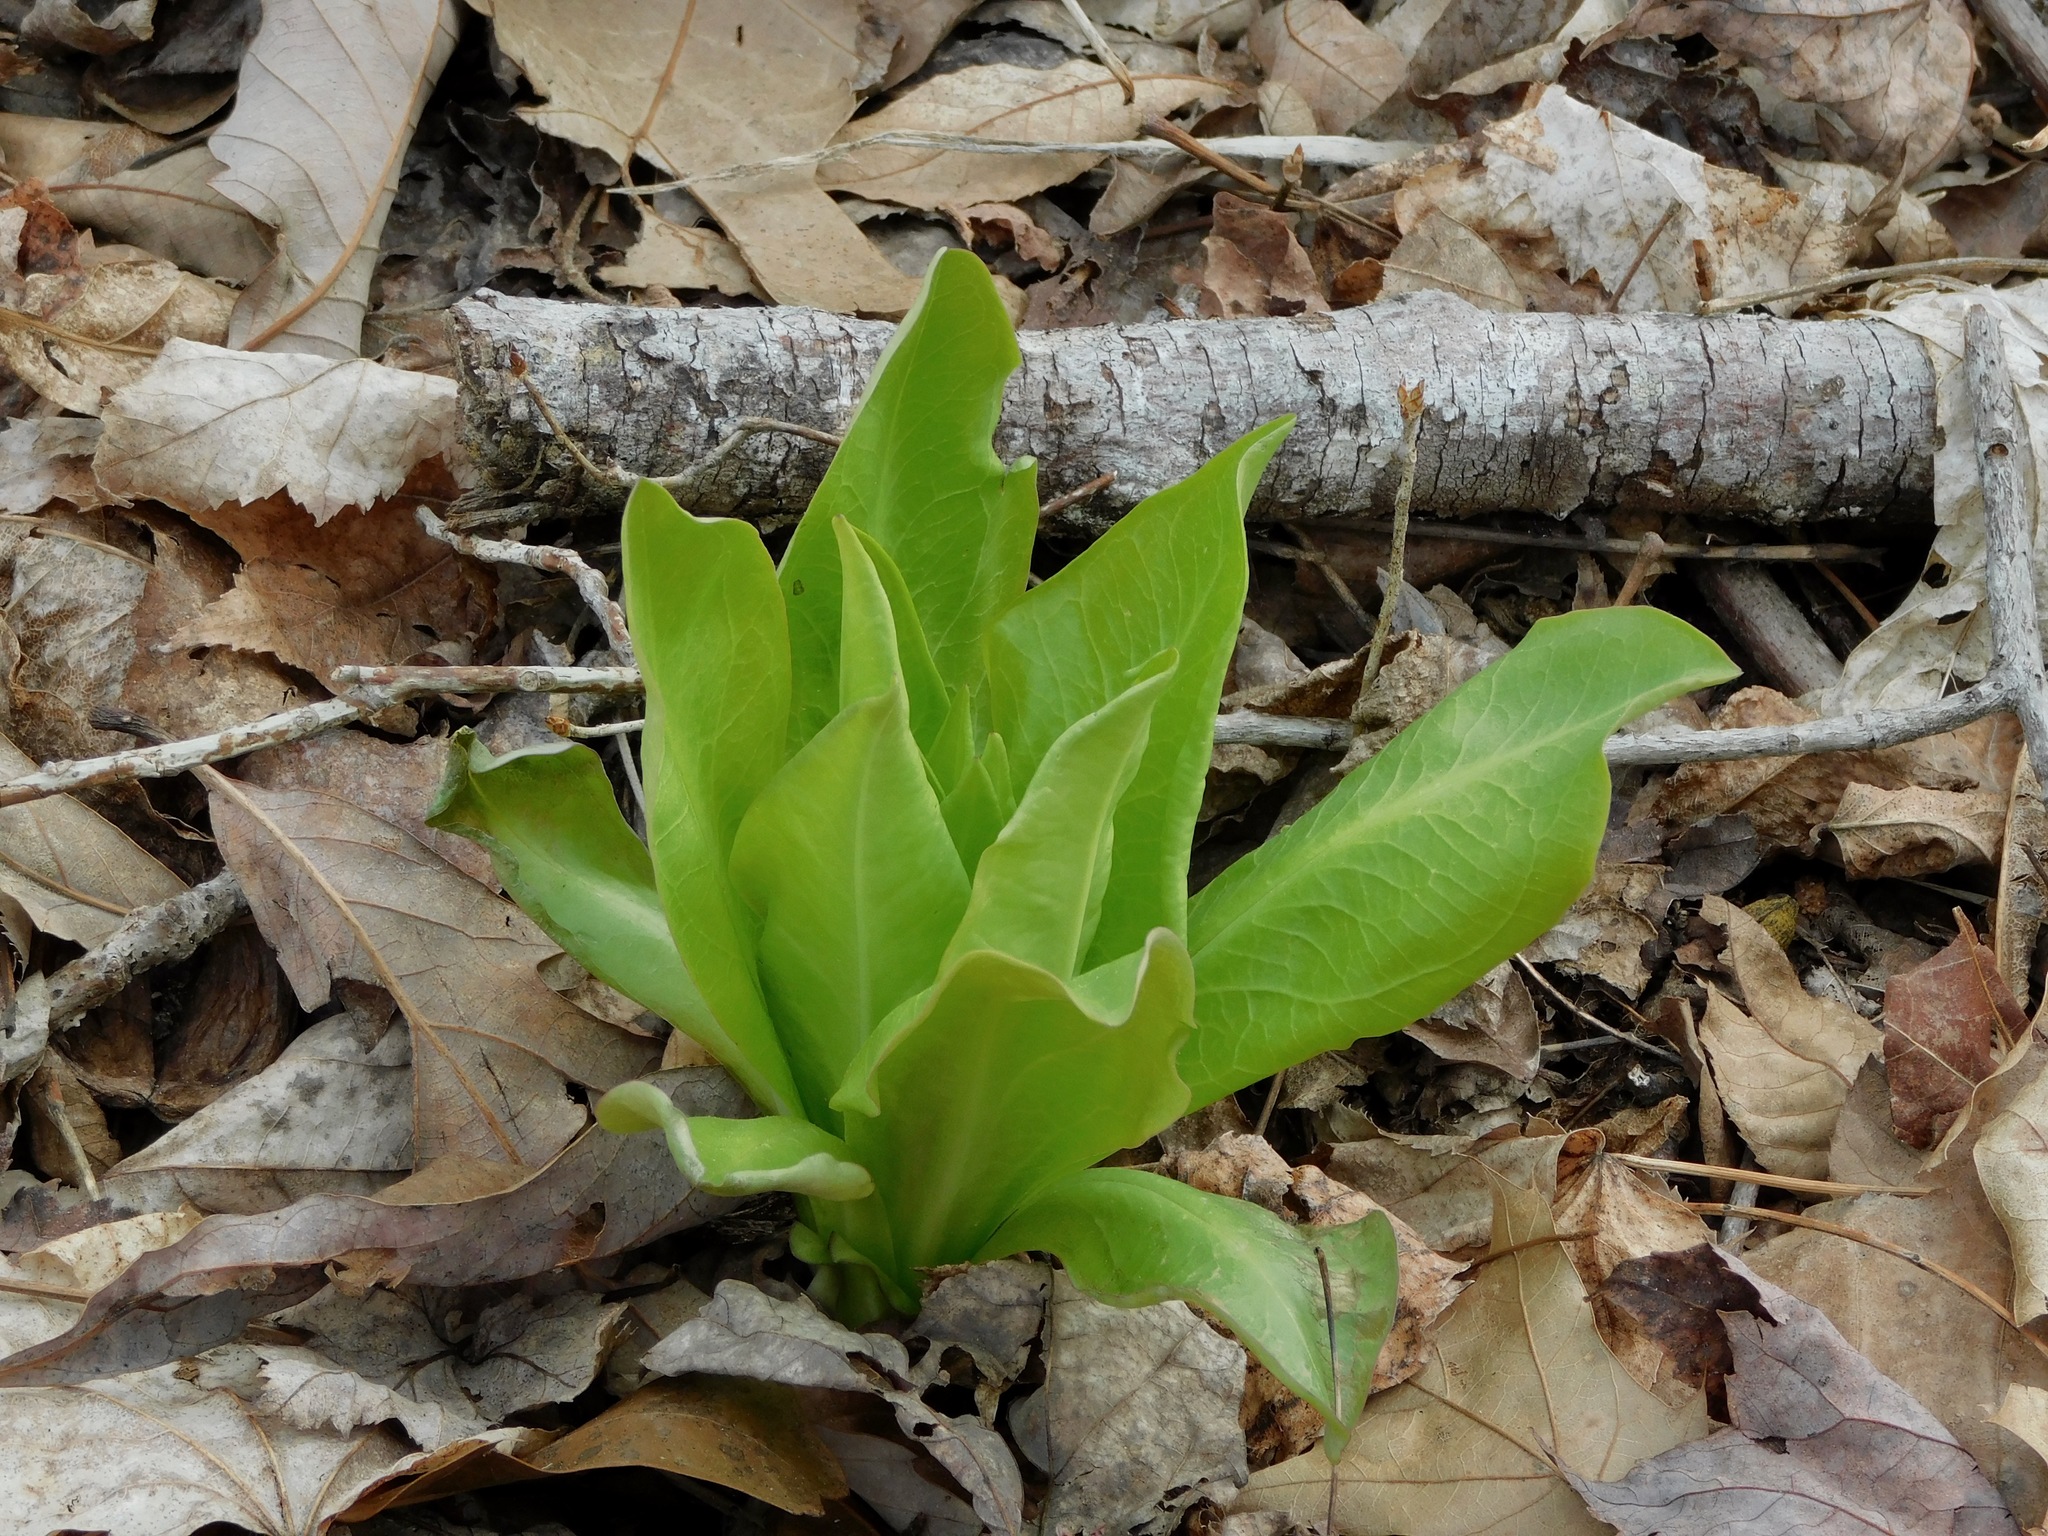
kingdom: Plantae
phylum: Tracheophyta
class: Magnoliopsida
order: Gentianales
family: Gentianaceae
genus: Frasera
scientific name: Frasera caroliniensis
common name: American columbo
